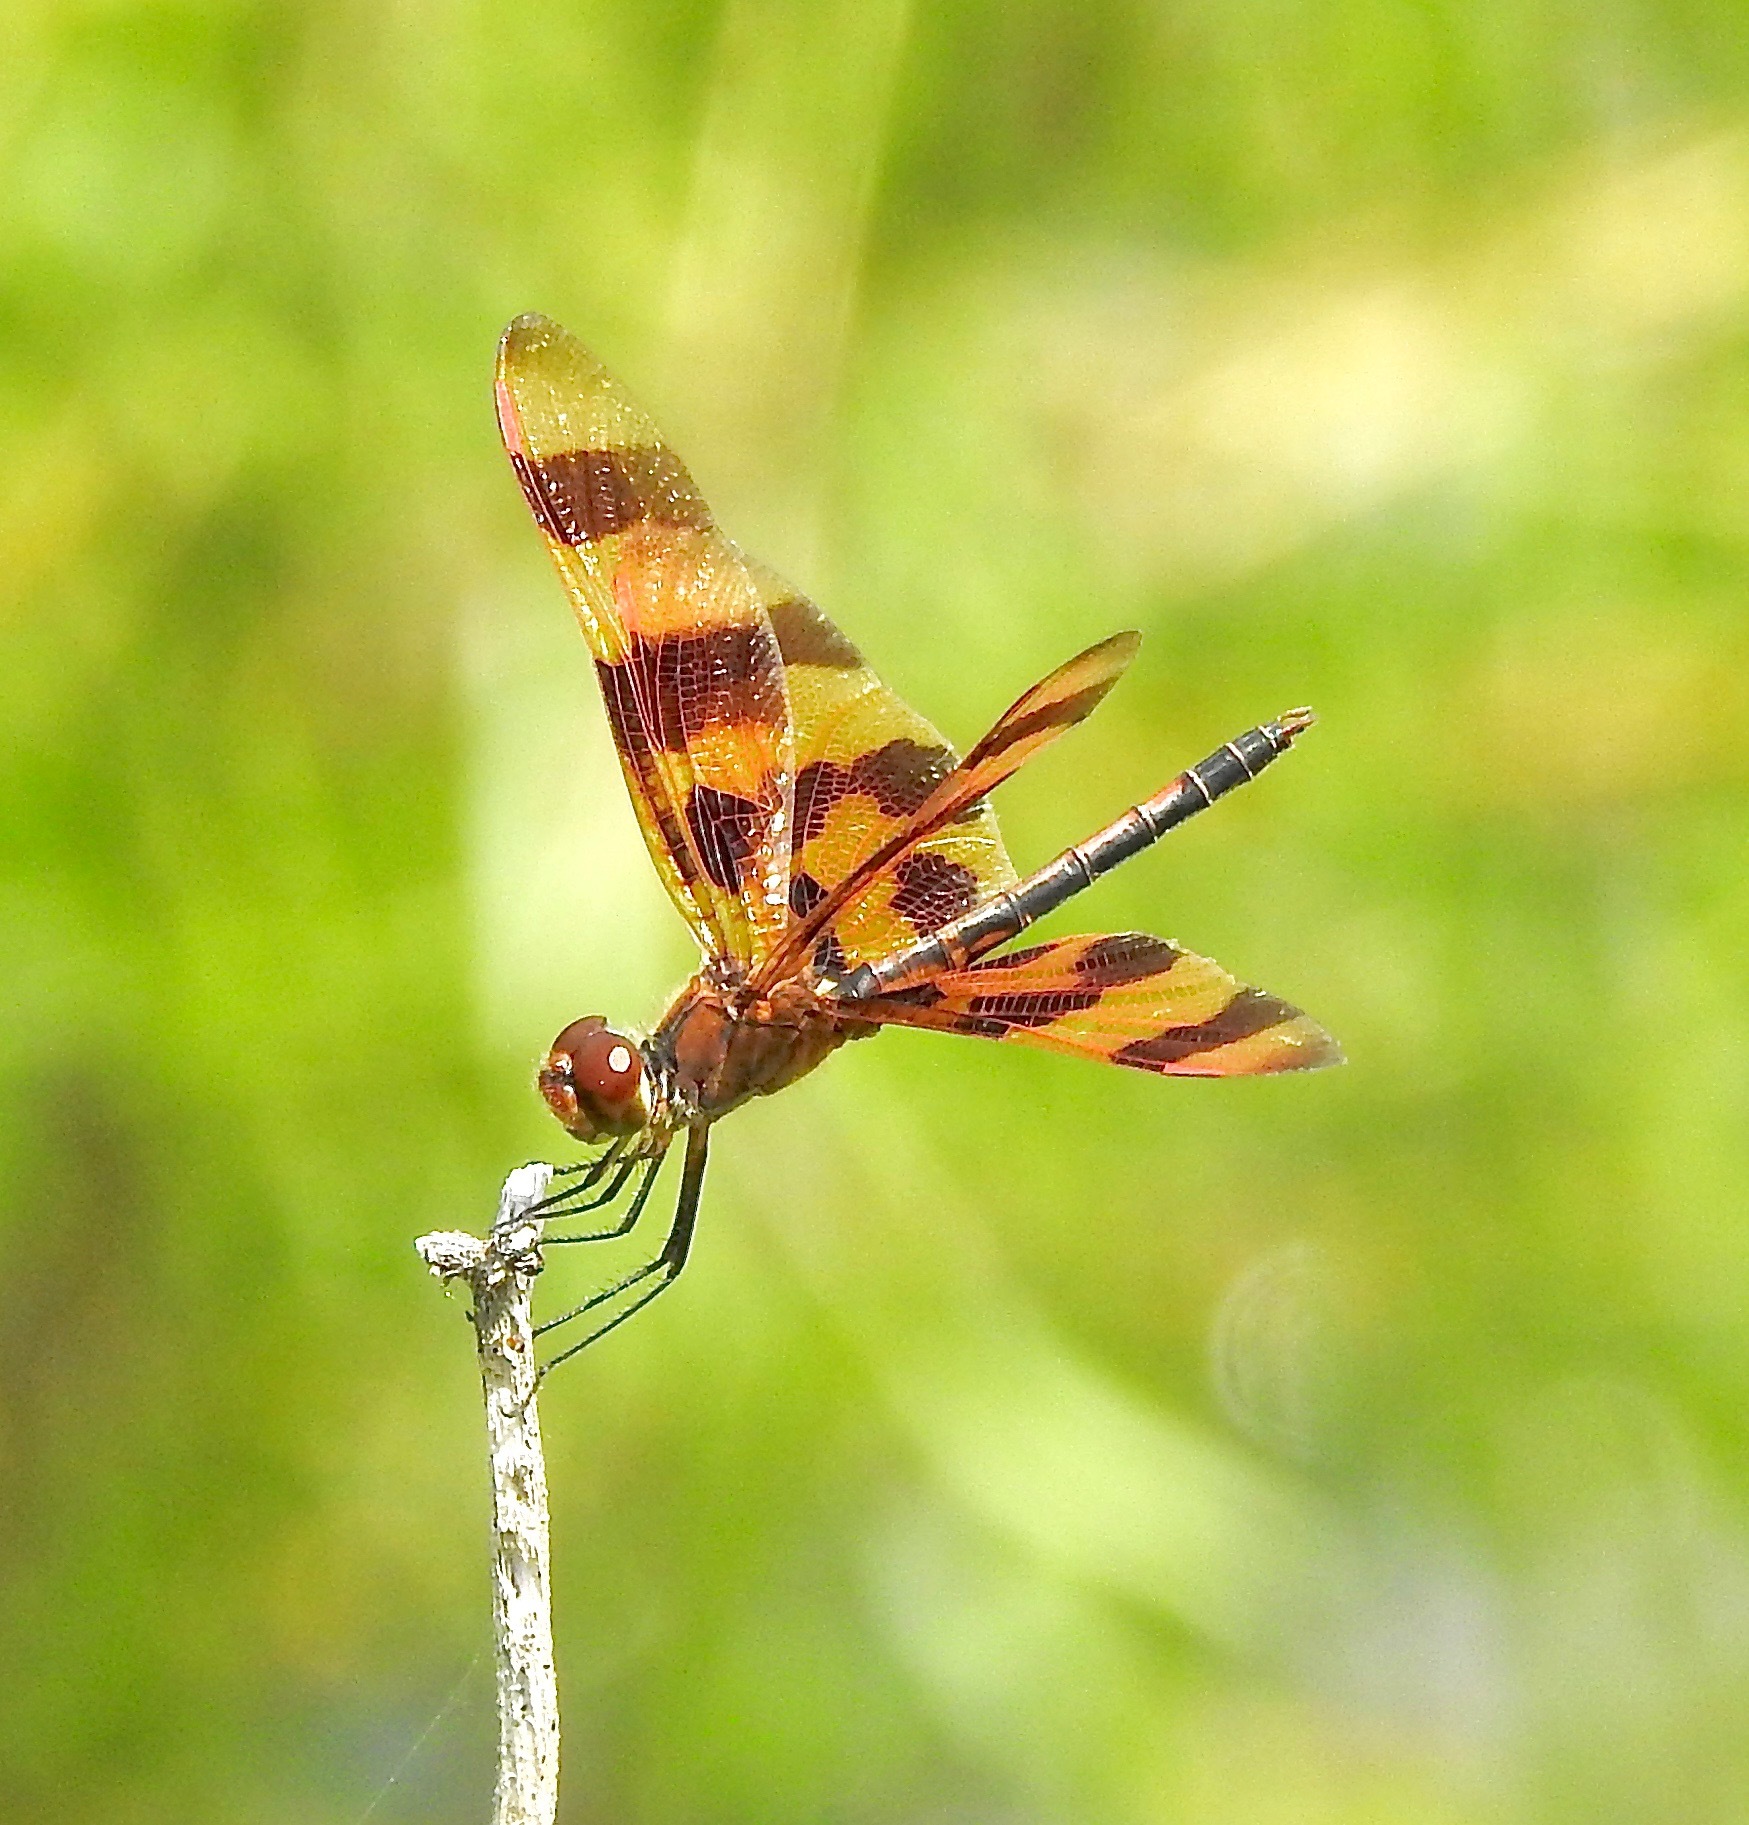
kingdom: Animalia
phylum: Arthropoda
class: Insecta
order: Odonata
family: Libellulidae
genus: Celithemis
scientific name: Celithemis eponina
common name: Halloween pennant
